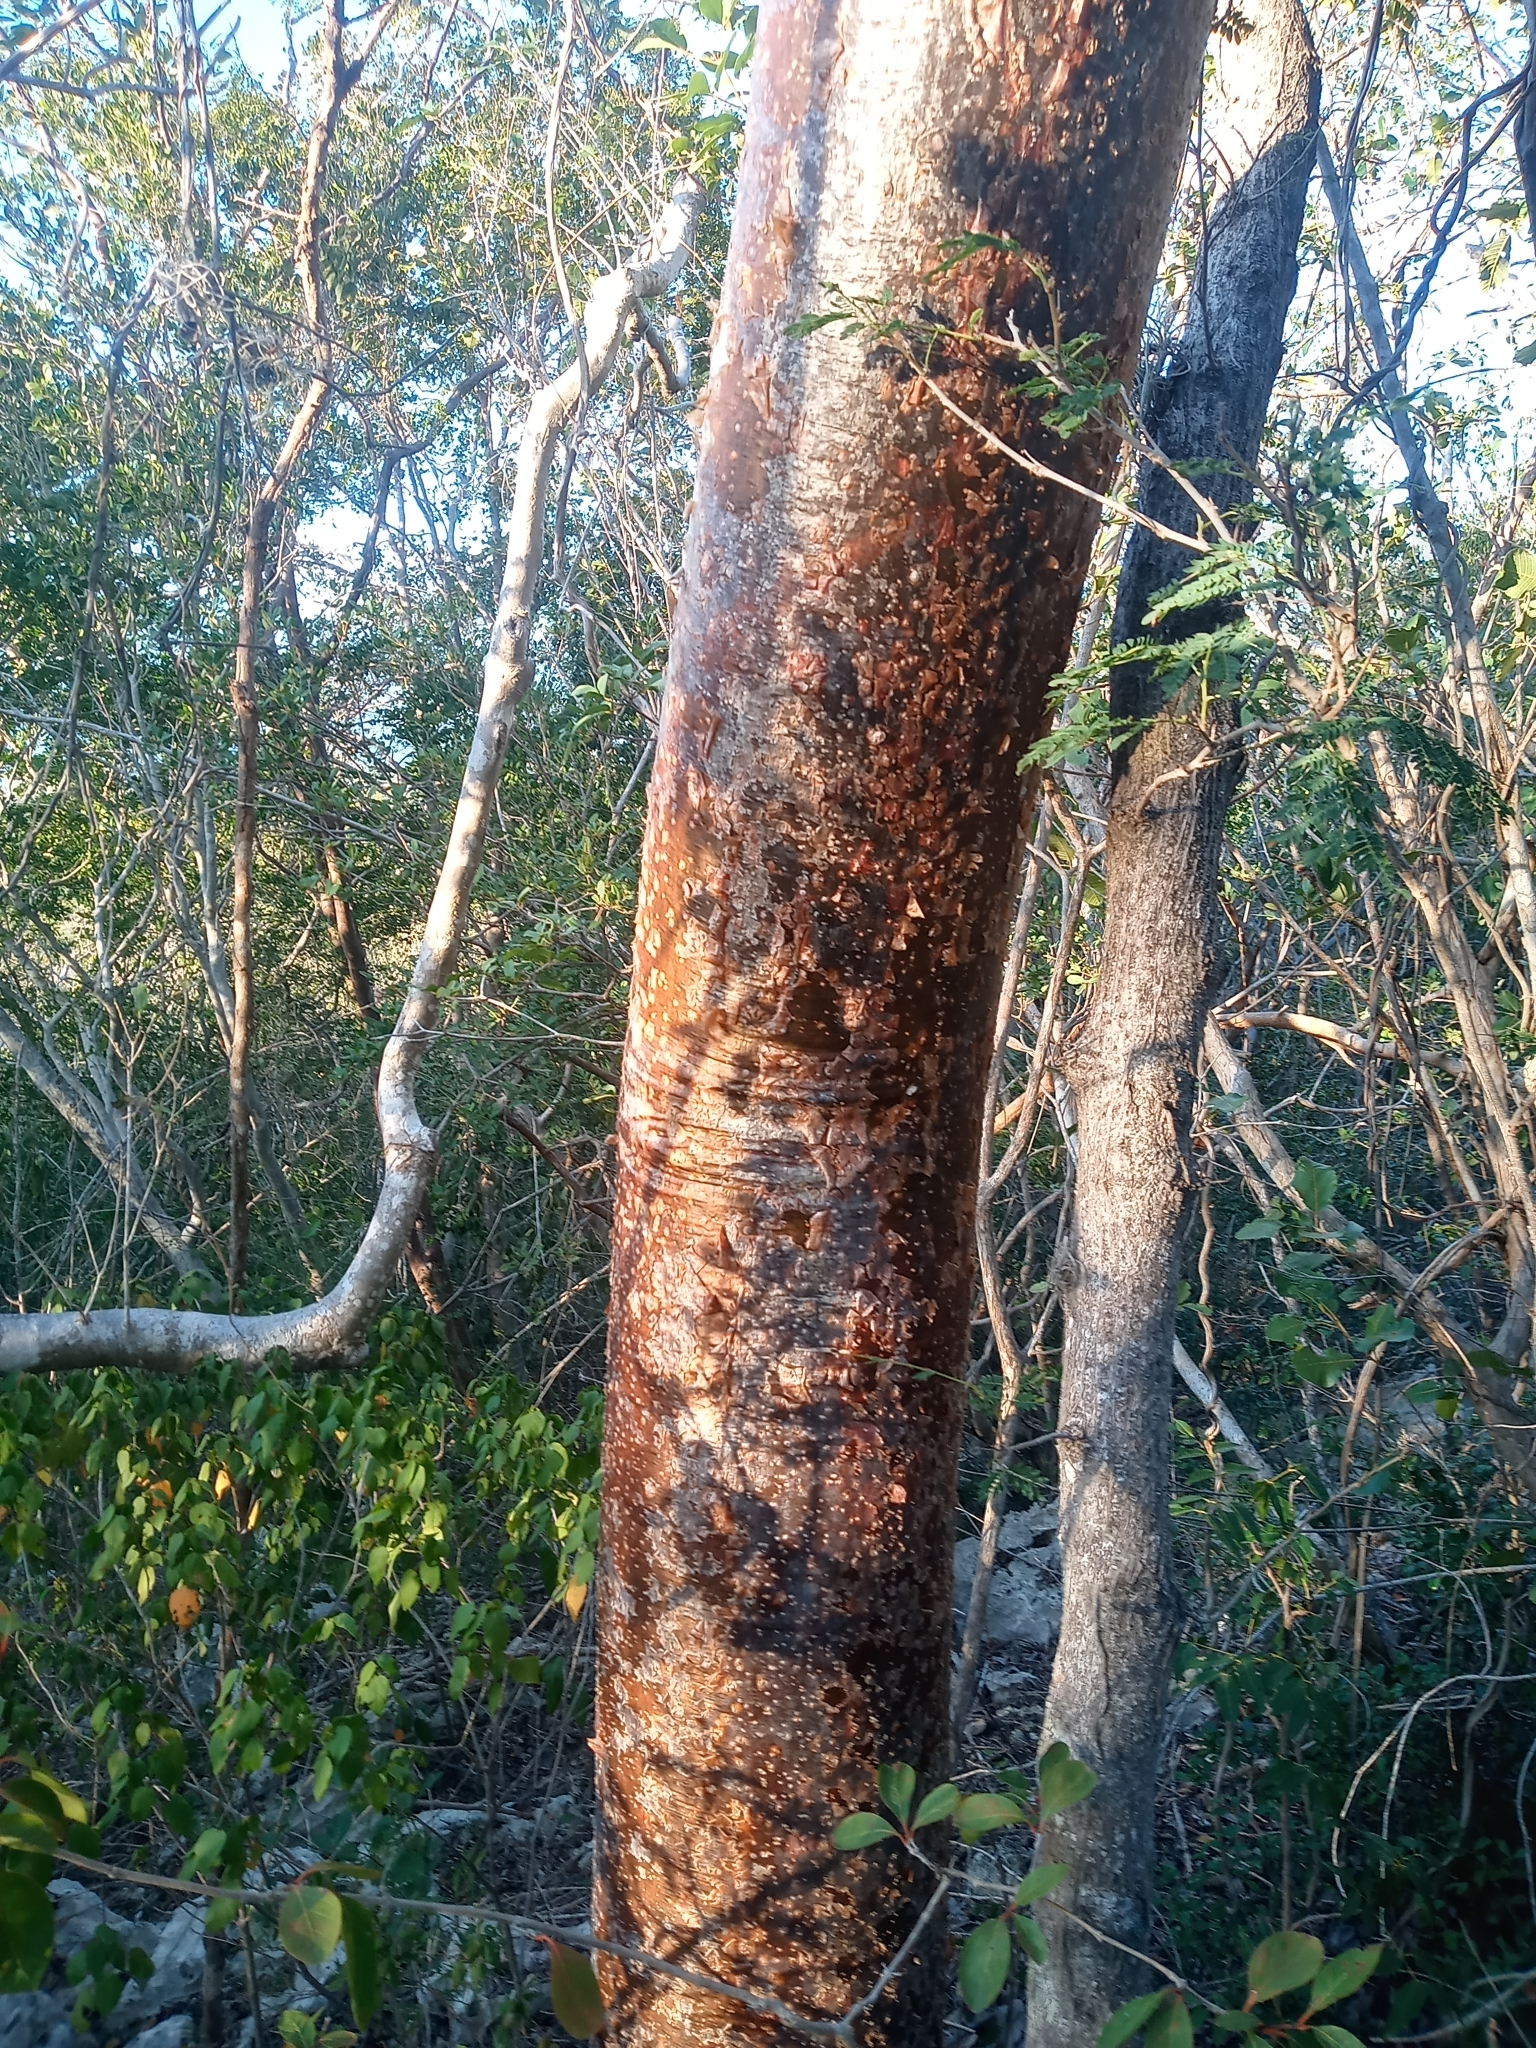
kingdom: Plantae
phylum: Tracheophyta
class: Magnoliopsida
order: Sapindales
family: Burseraceae
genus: Bursera
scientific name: Bursera simaruba
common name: Turpentine tree
